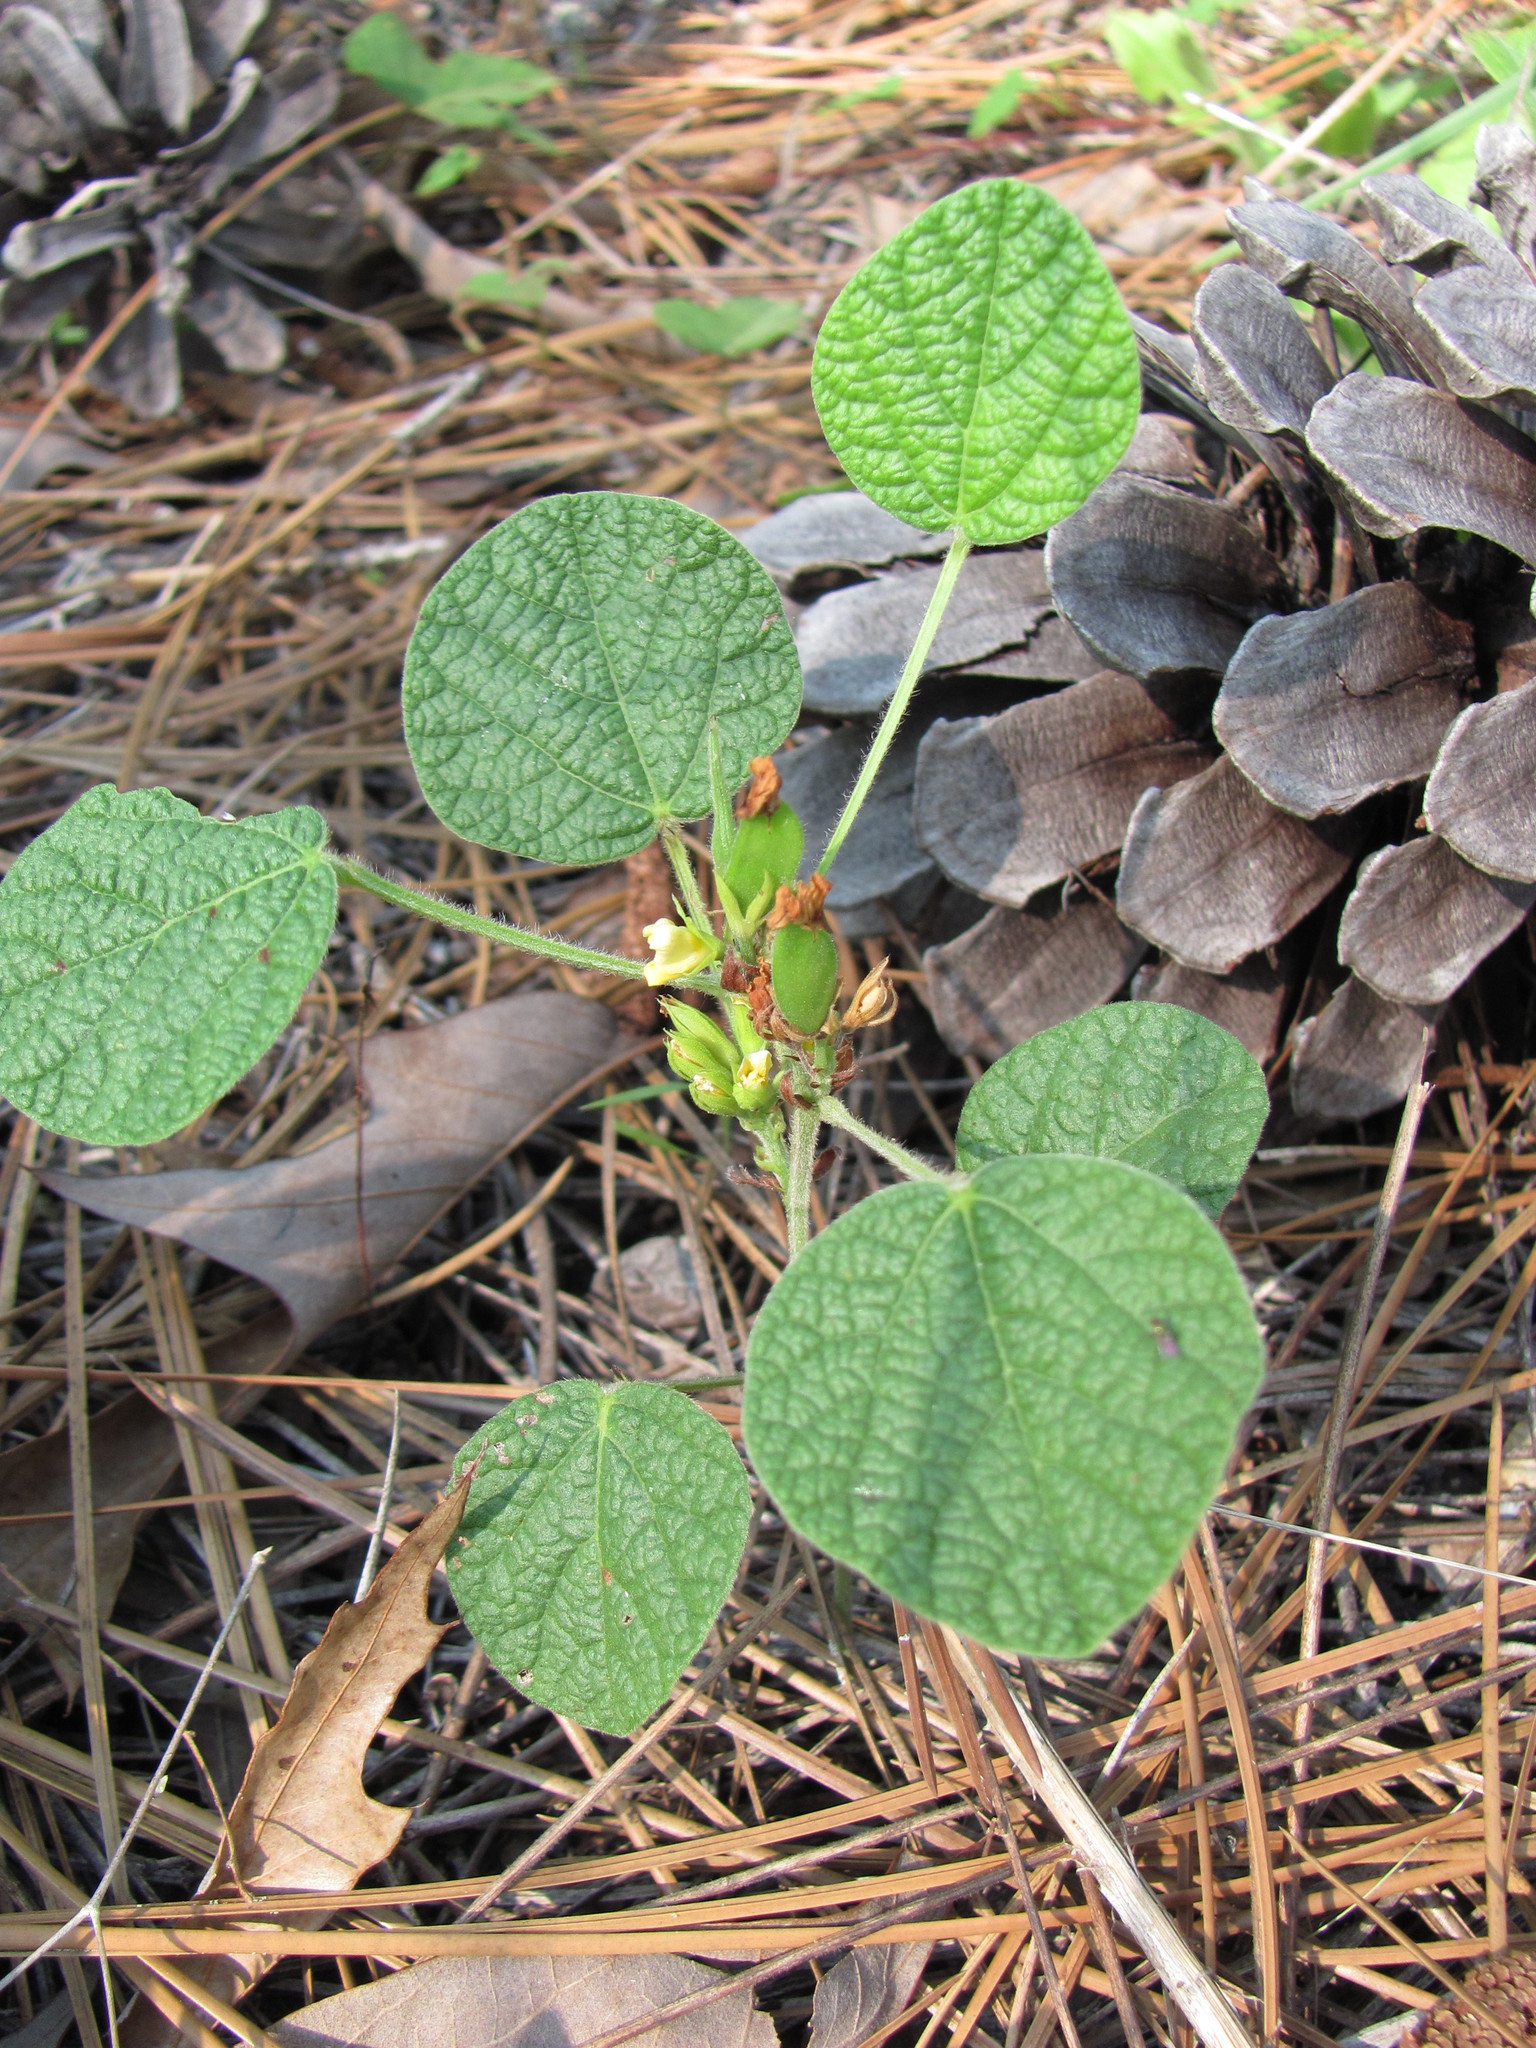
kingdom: Plantae
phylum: Tracheophyta
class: Magnoliopsida
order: Fabales
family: Fabaceae
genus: Rhynchosia
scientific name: Rhynchosia reniformis
